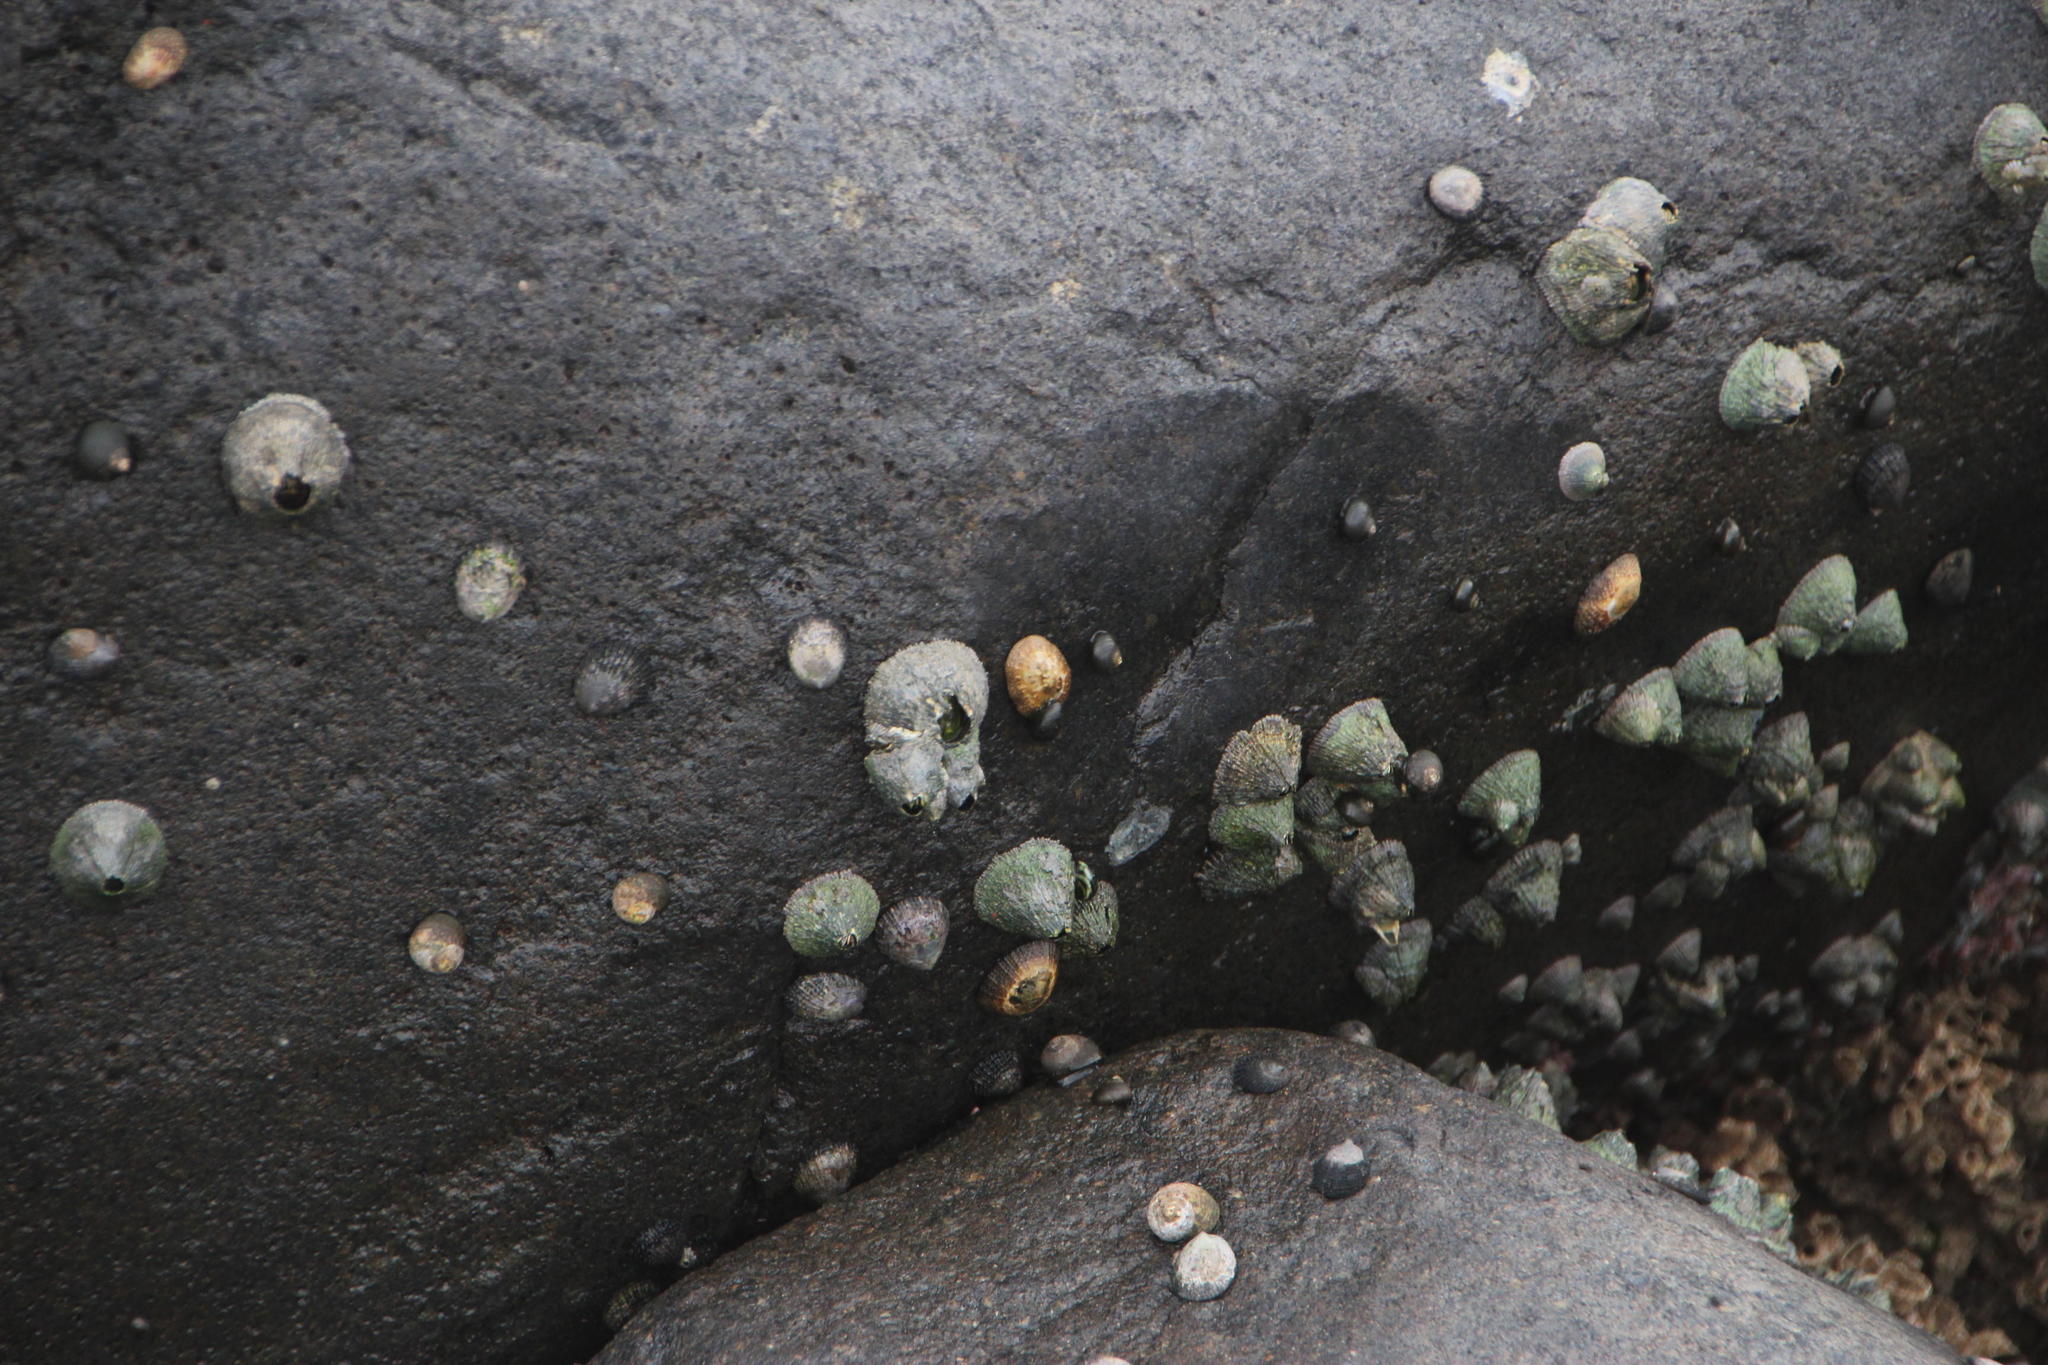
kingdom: Animalia
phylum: Arthropoda
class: Maxillopoda
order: Sessilia
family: Tetraclitidae
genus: Tetraclita
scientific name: Tetraclita serrata
